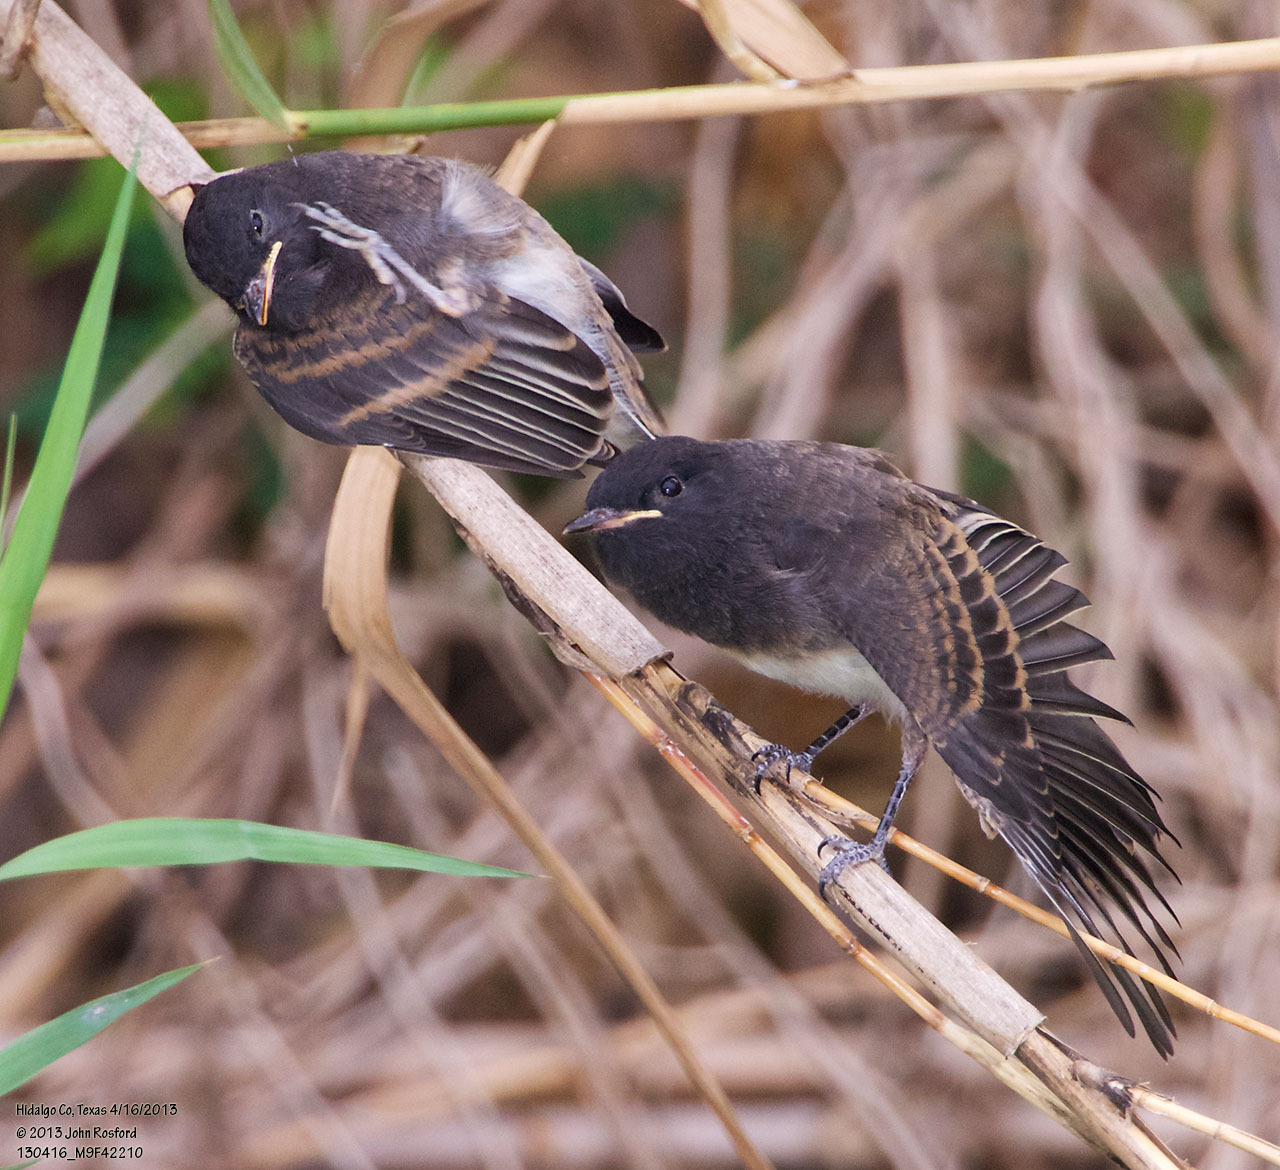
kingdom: Animalia
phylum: Chordata
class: Aves
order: Passeriformes
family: Tyrannidae
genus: Sayornis
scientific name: Sayornis nigricans
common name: Black phoebe
